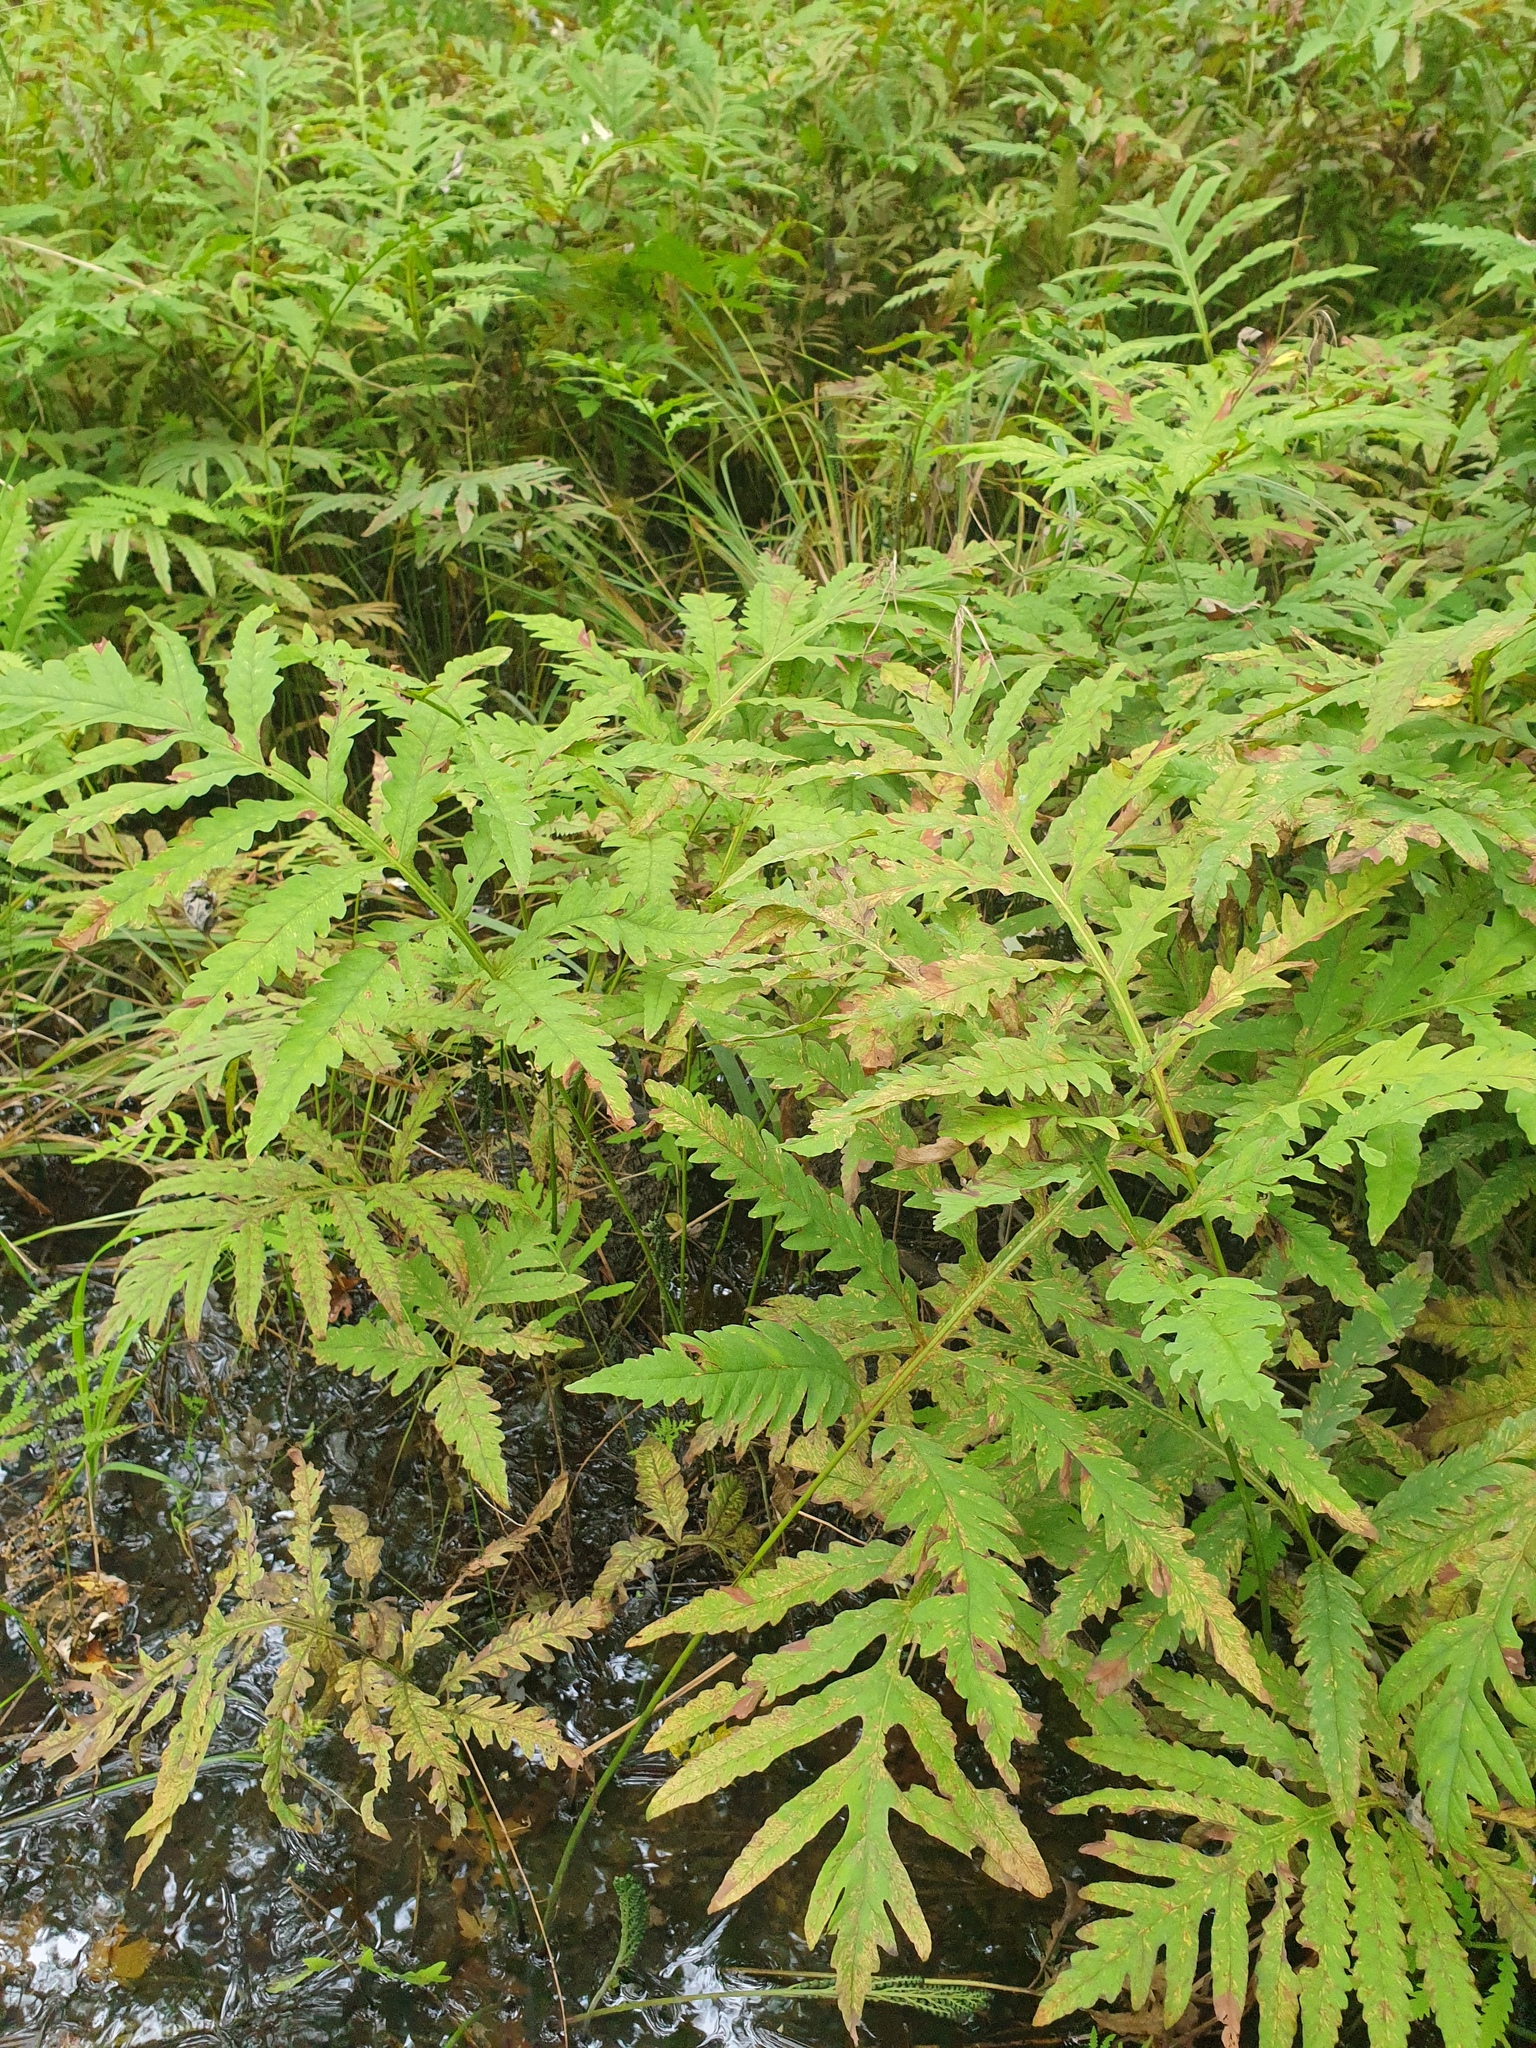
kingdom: Plantae
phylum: Tracheophyta
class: Polypodiopsida
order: Polypodiales
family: Onocleaceae
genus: Onoclea
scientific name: Onoclea sensibilis
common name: Sensitive fern
